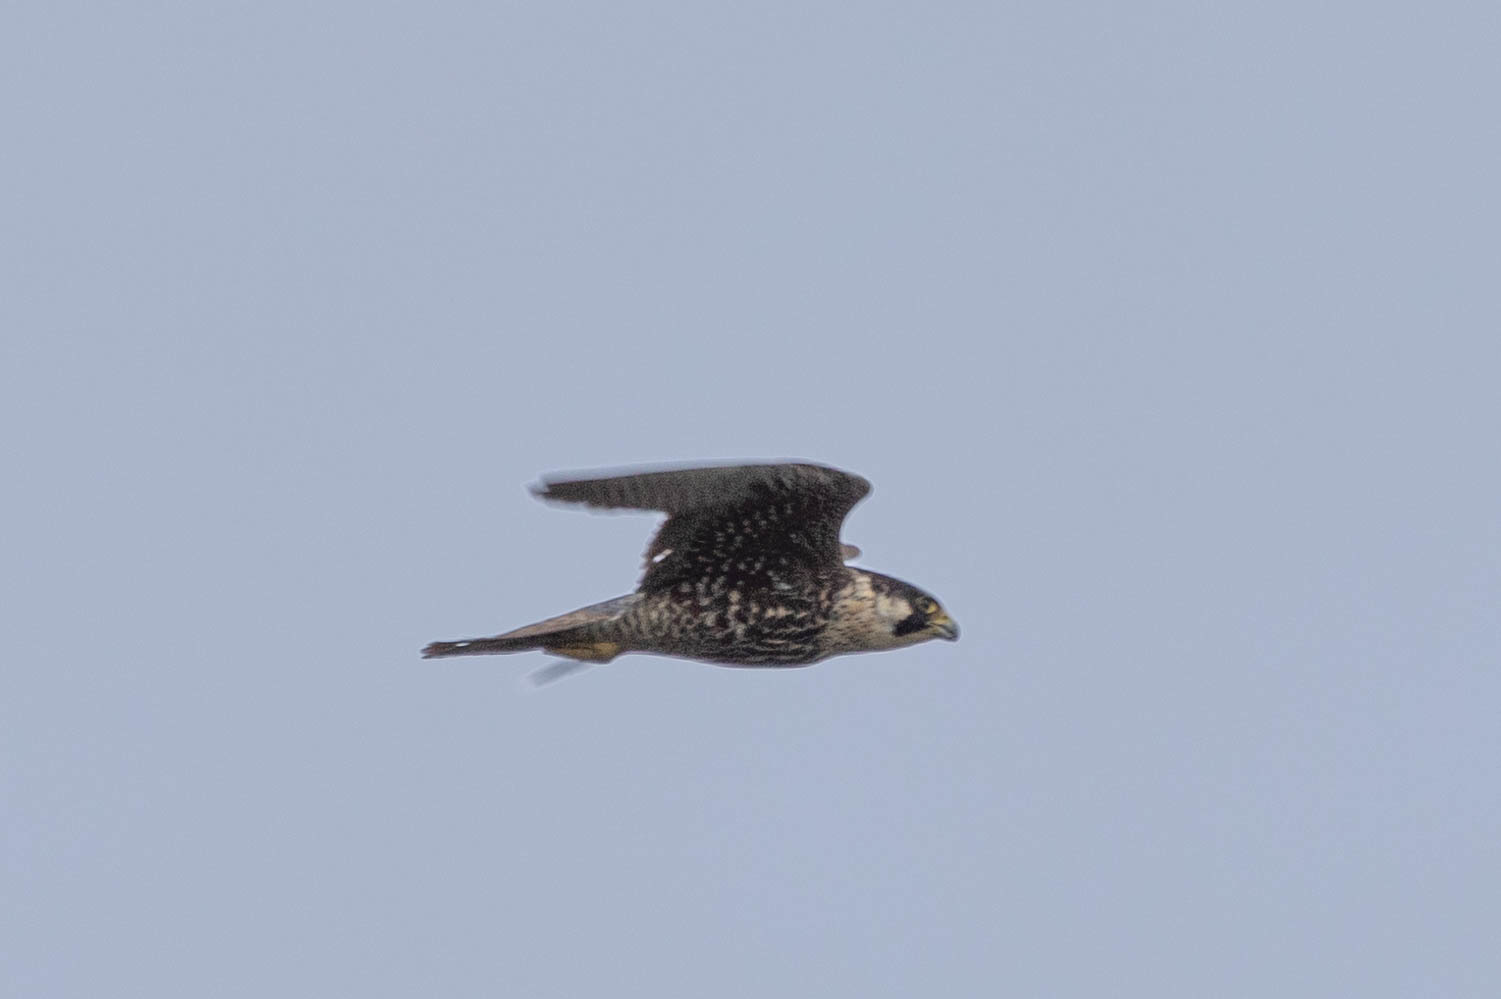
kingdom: Animalia
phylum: Chordata
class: Aves
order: Falconiformes
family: Falconidae
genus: Falco
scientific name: Falco peregrinus
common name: Peregrine falcon
